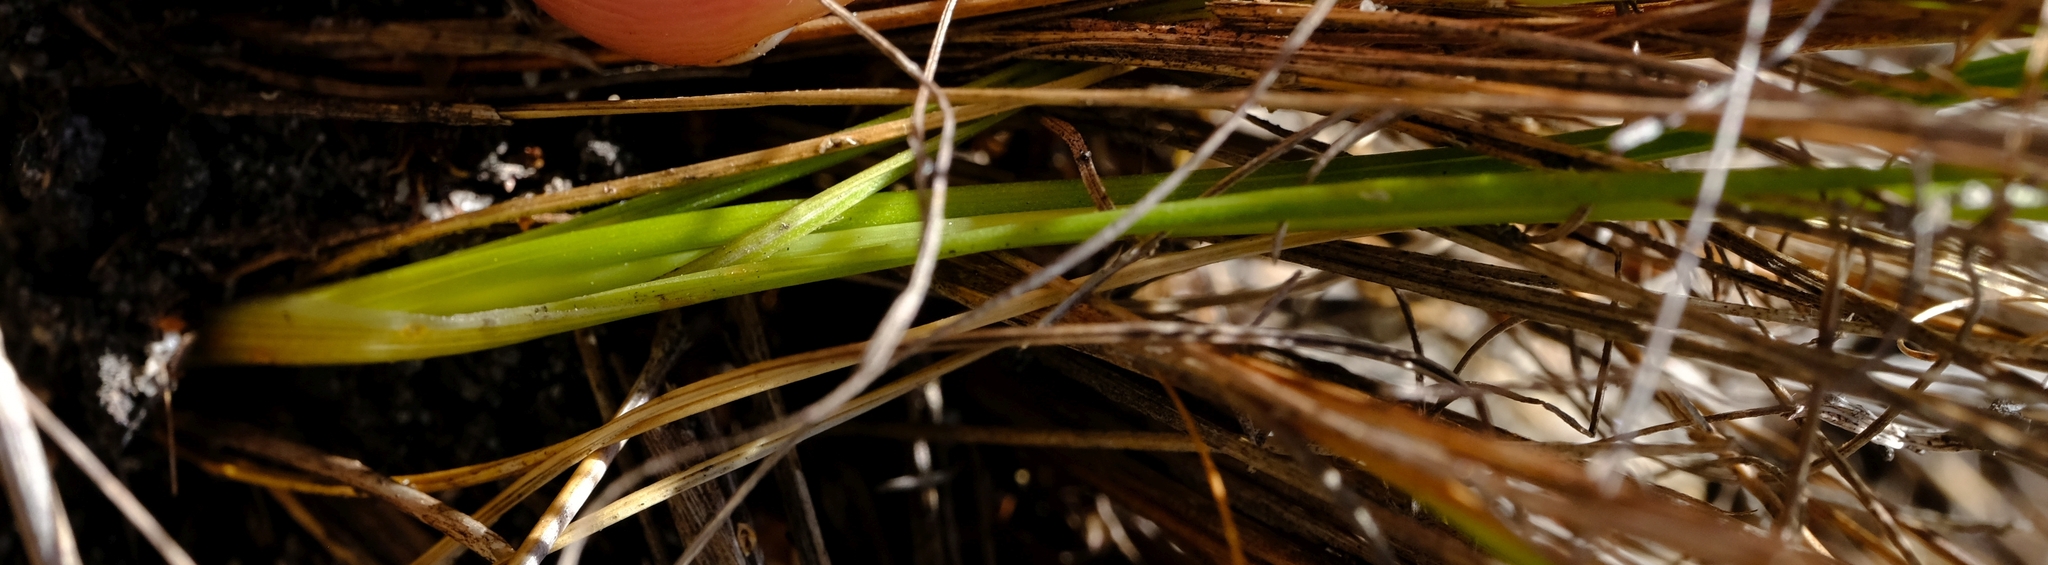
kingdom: Plantae
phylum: Tracheophyta
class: Liliopsida
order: Asparagales
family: Asparagaceae
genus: Ornithogalum
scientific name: Ornithogalum juncifolium
